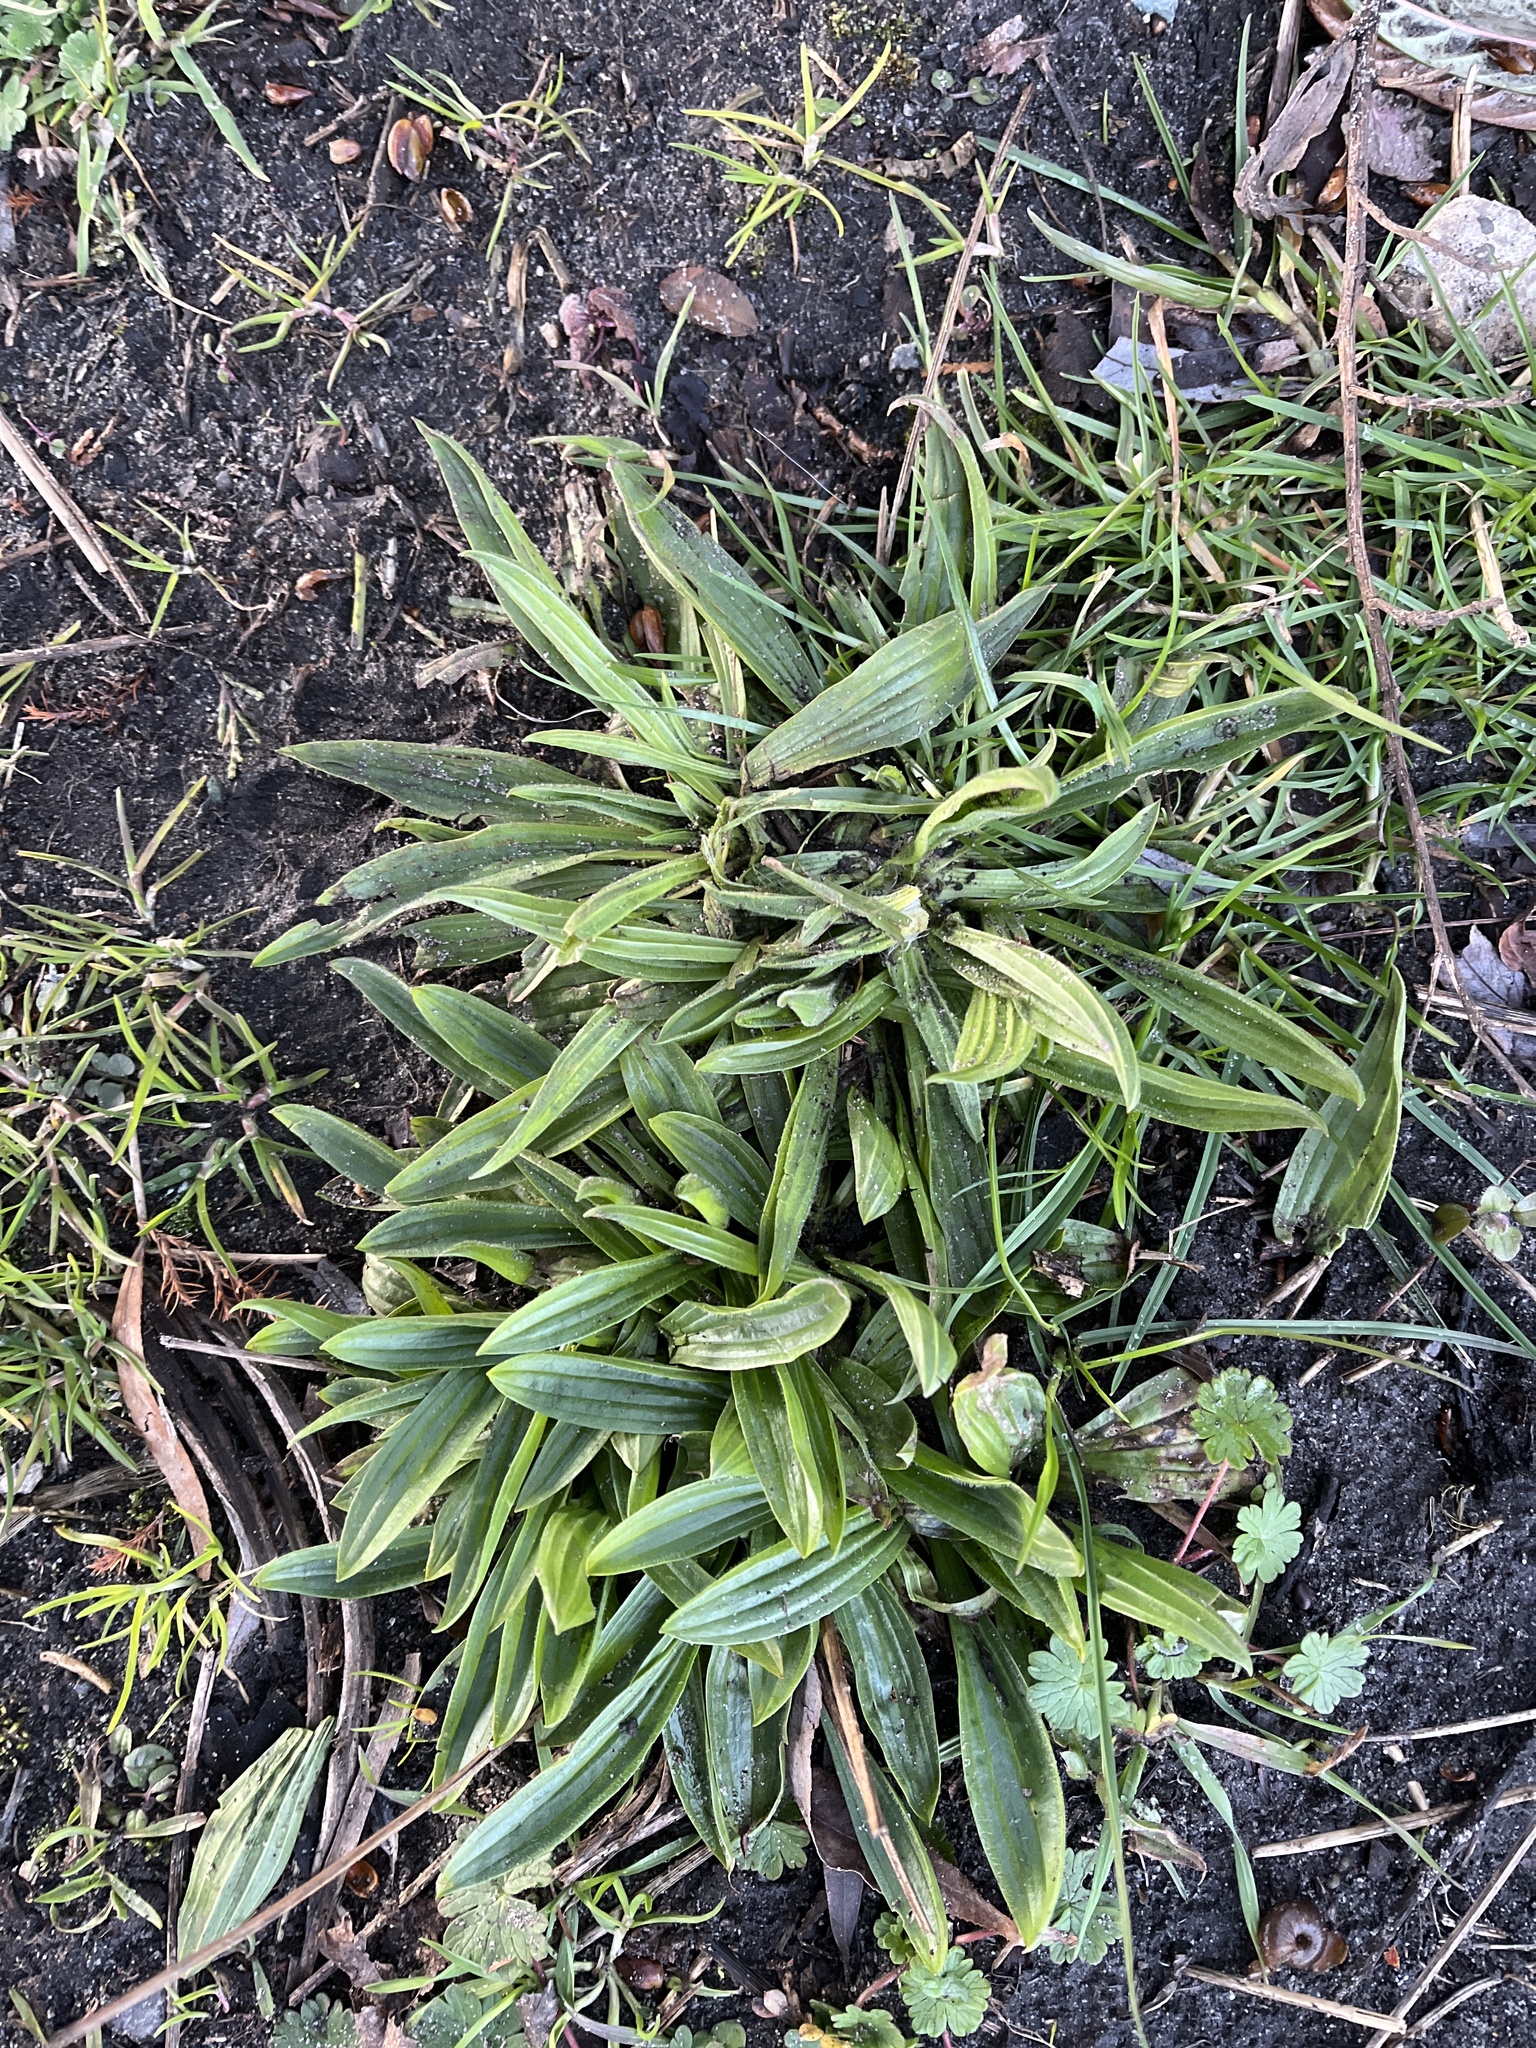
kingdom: Plantae
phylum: Tracheophyta
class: Magnoliopsida
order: Lamiales
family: Plantaginaceae
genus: Plantago
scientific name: Plantago lanceolata
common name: Ribwort plantain
